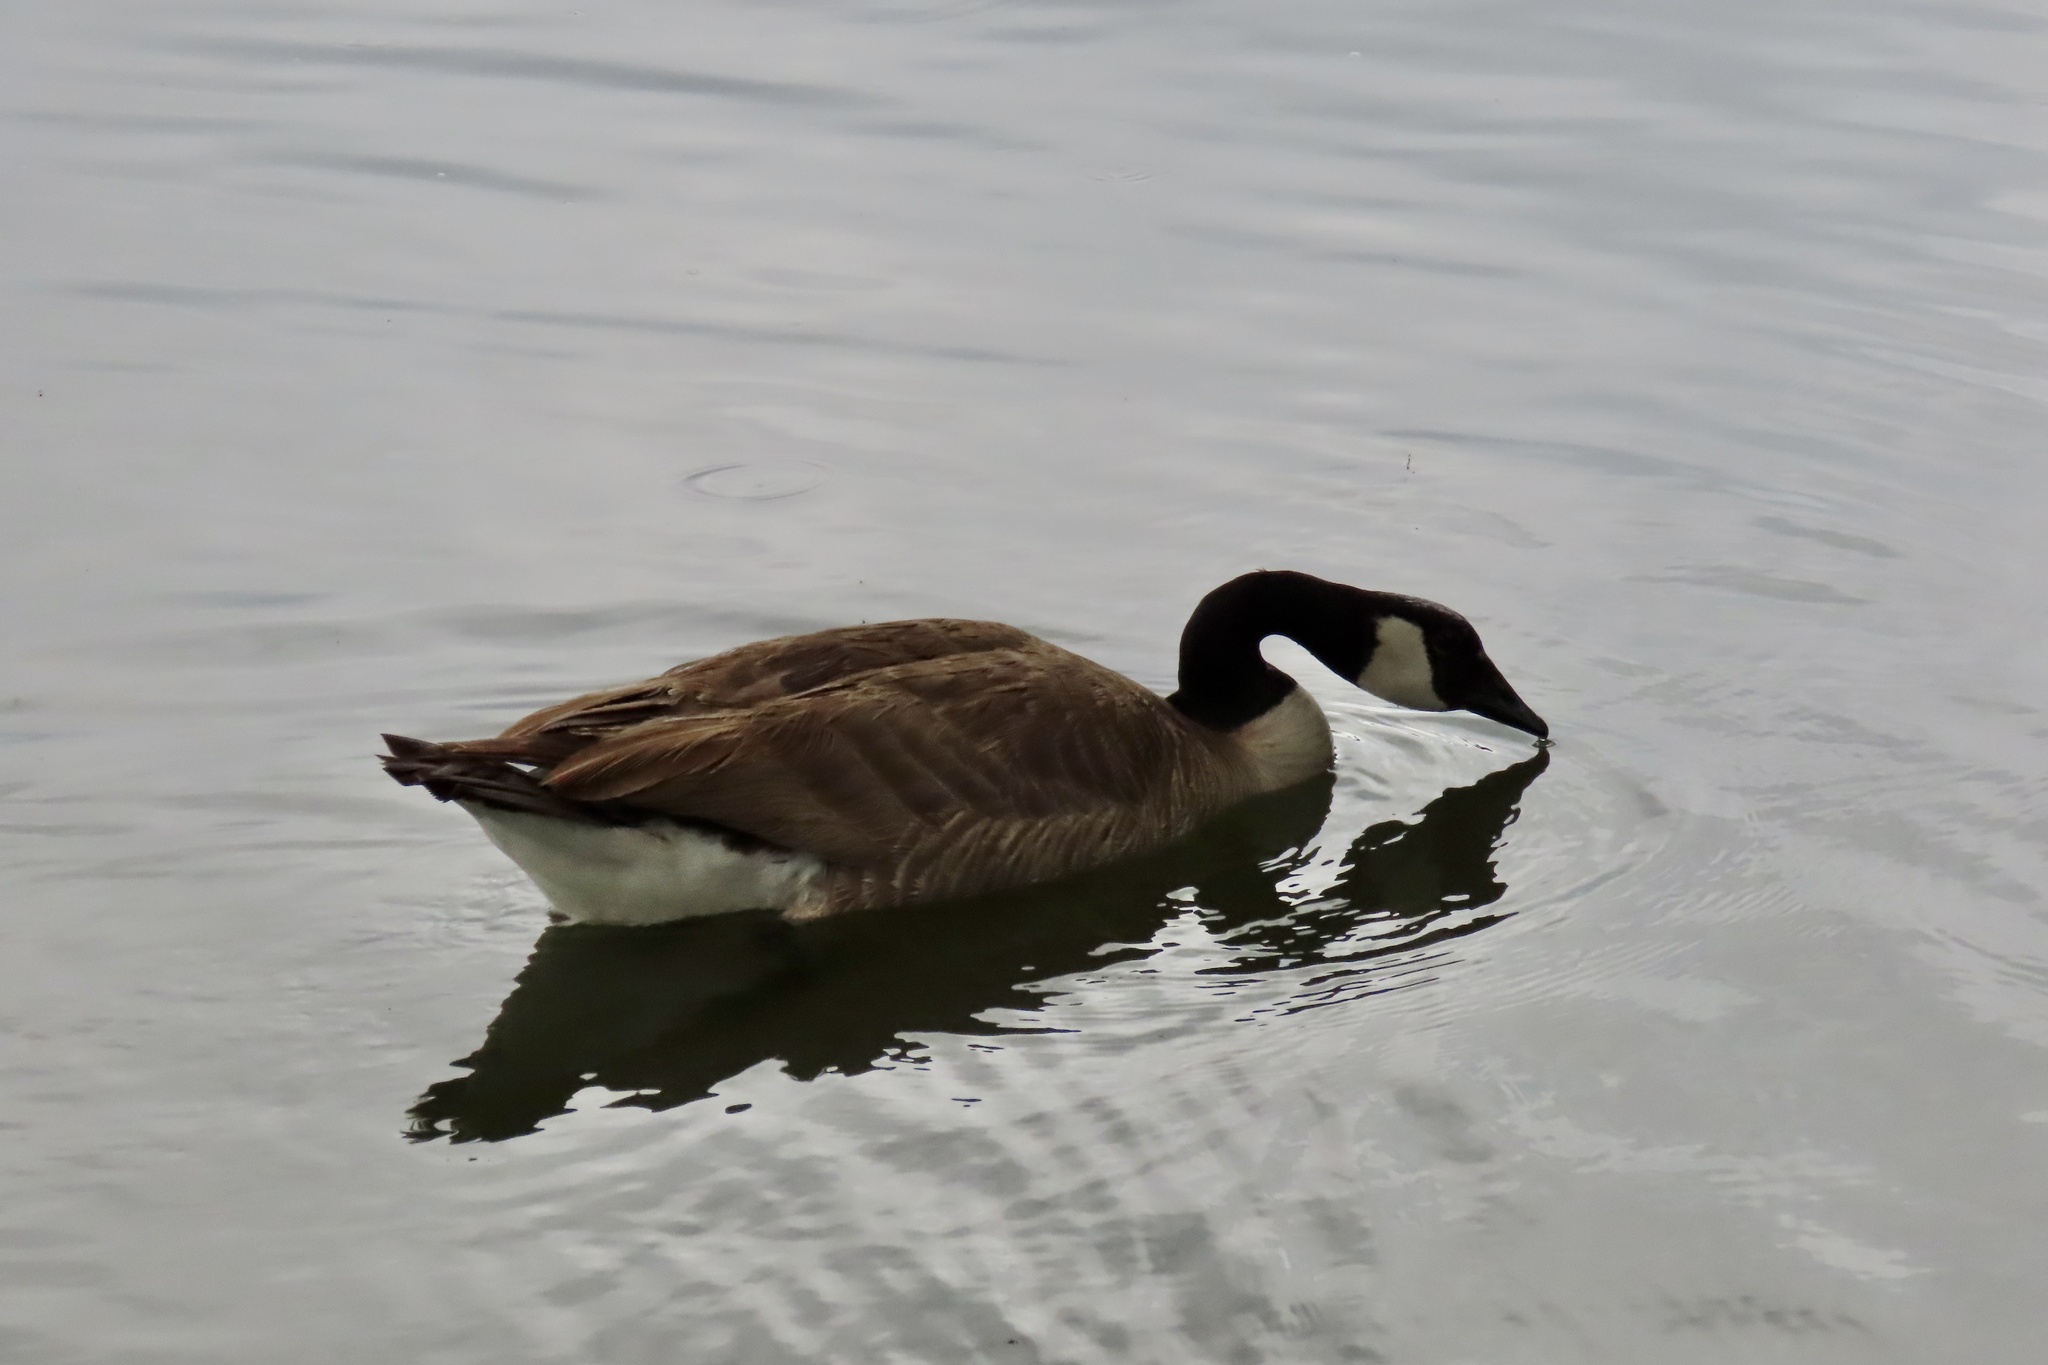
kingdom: Animalia
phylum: Chordata
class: Aves
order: Anseriformes
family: Anatidae
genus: Branta
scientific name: Branta canadensis
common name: Canada goose
